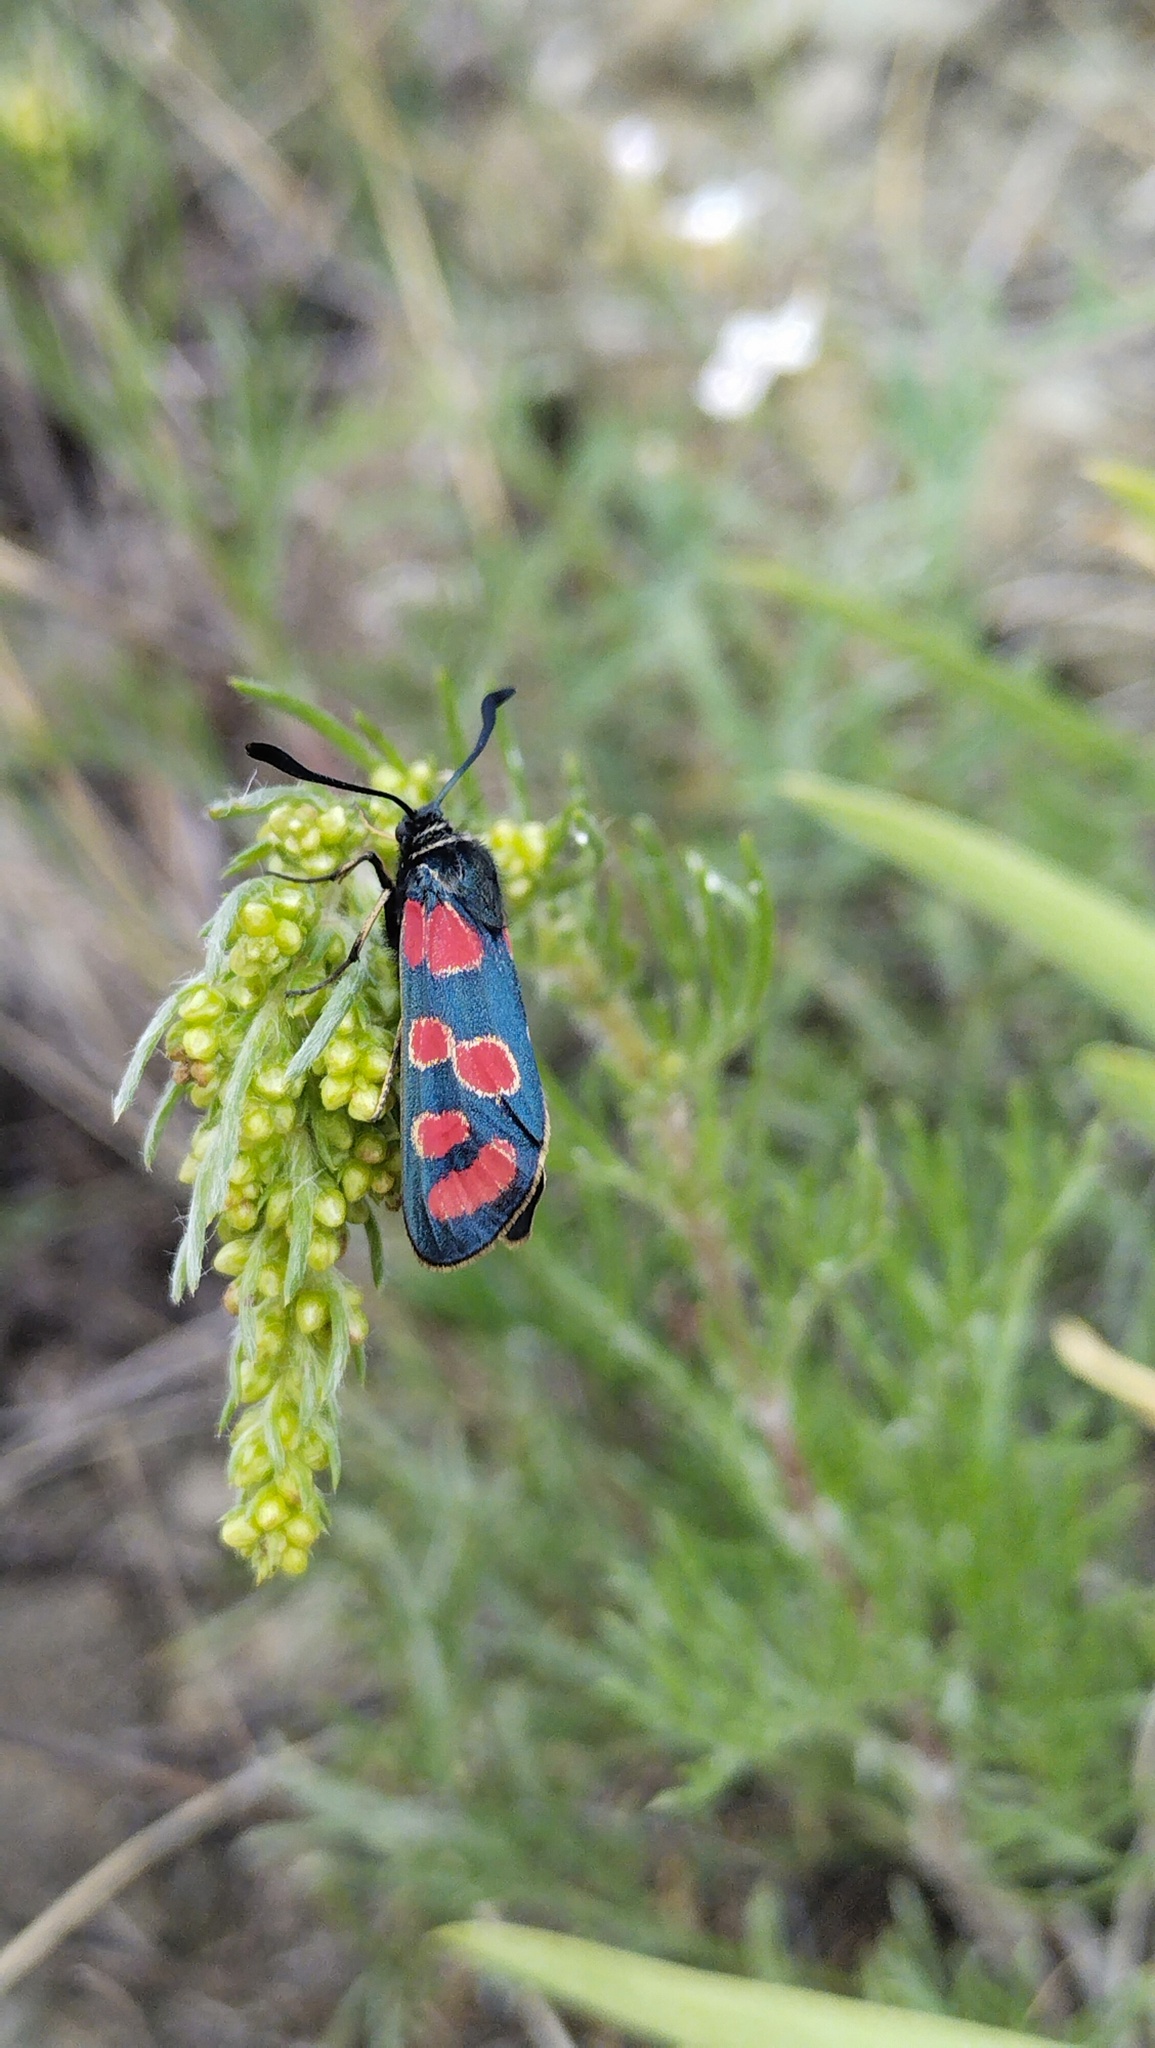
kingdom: Animalia
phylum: Arthropoda
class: Insecta
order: Lepidoptera
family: Zygaenidae
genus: Zygaena
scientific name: Zygaena carniolica
